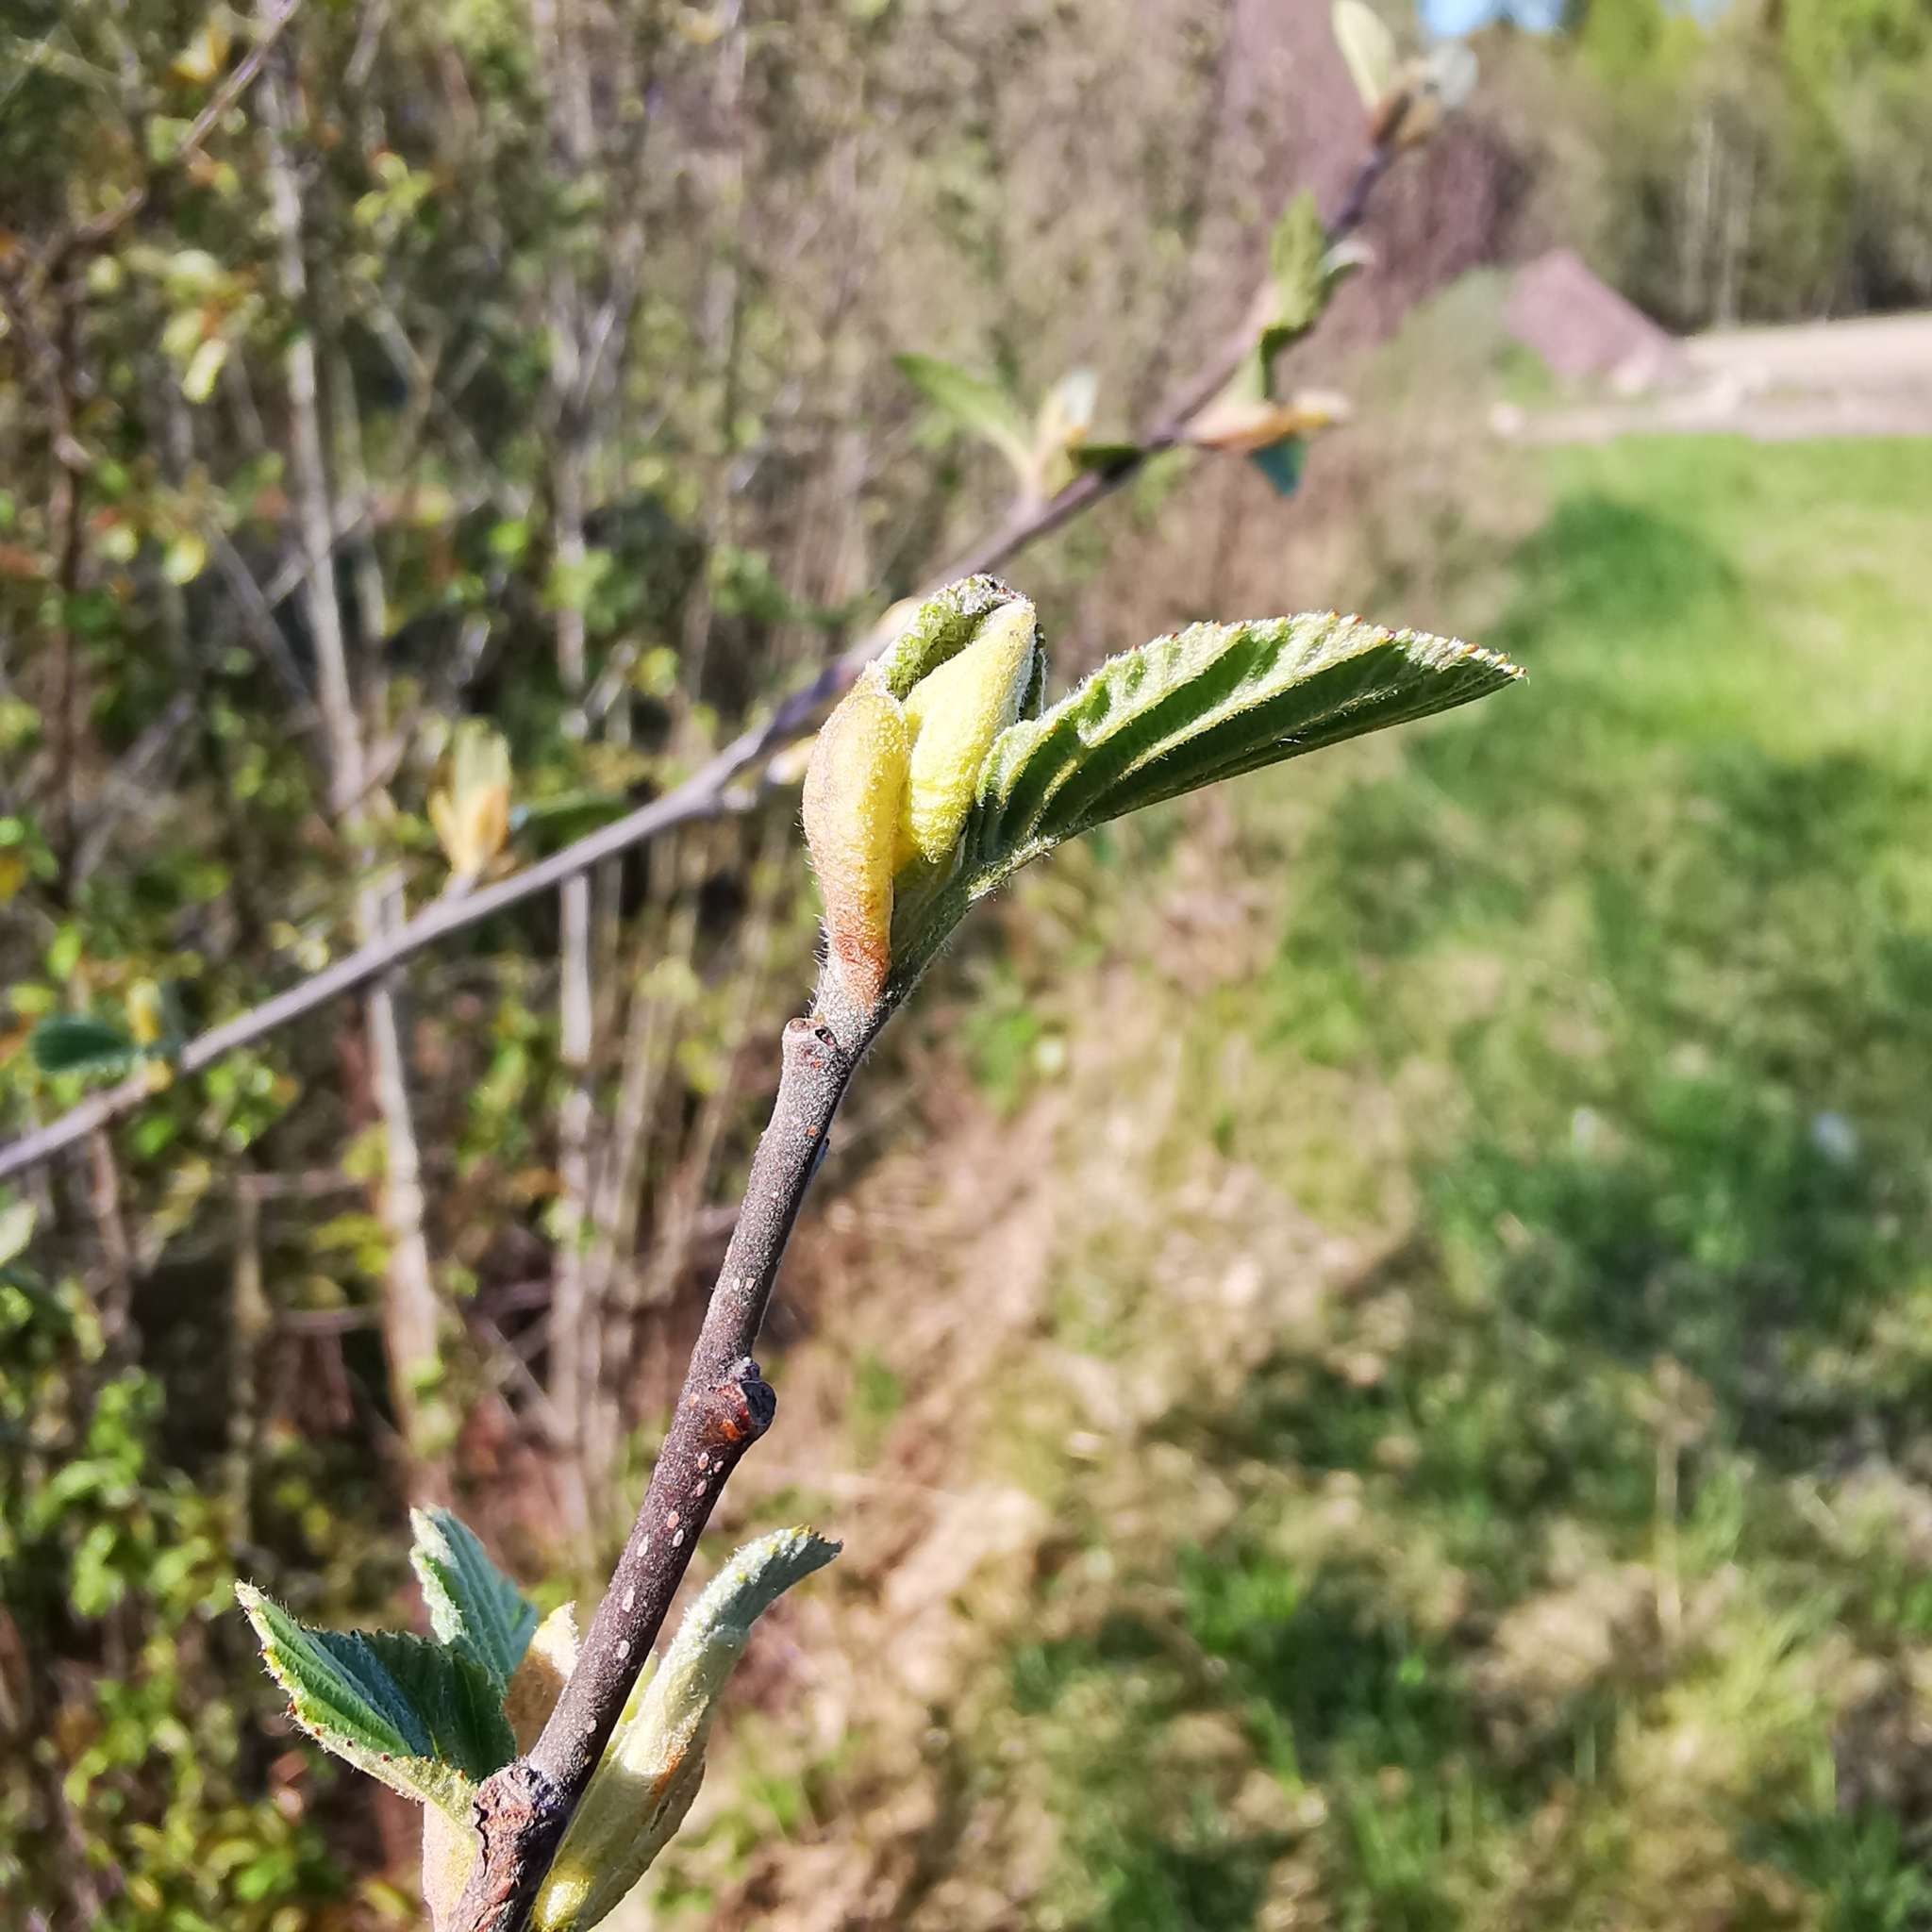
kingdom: Plantae
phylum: Tracheophyta
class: Magnoliopsida
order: Fagales
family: Betulaceae
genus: Alnus
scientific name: Alnus incana
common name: Grey alder
